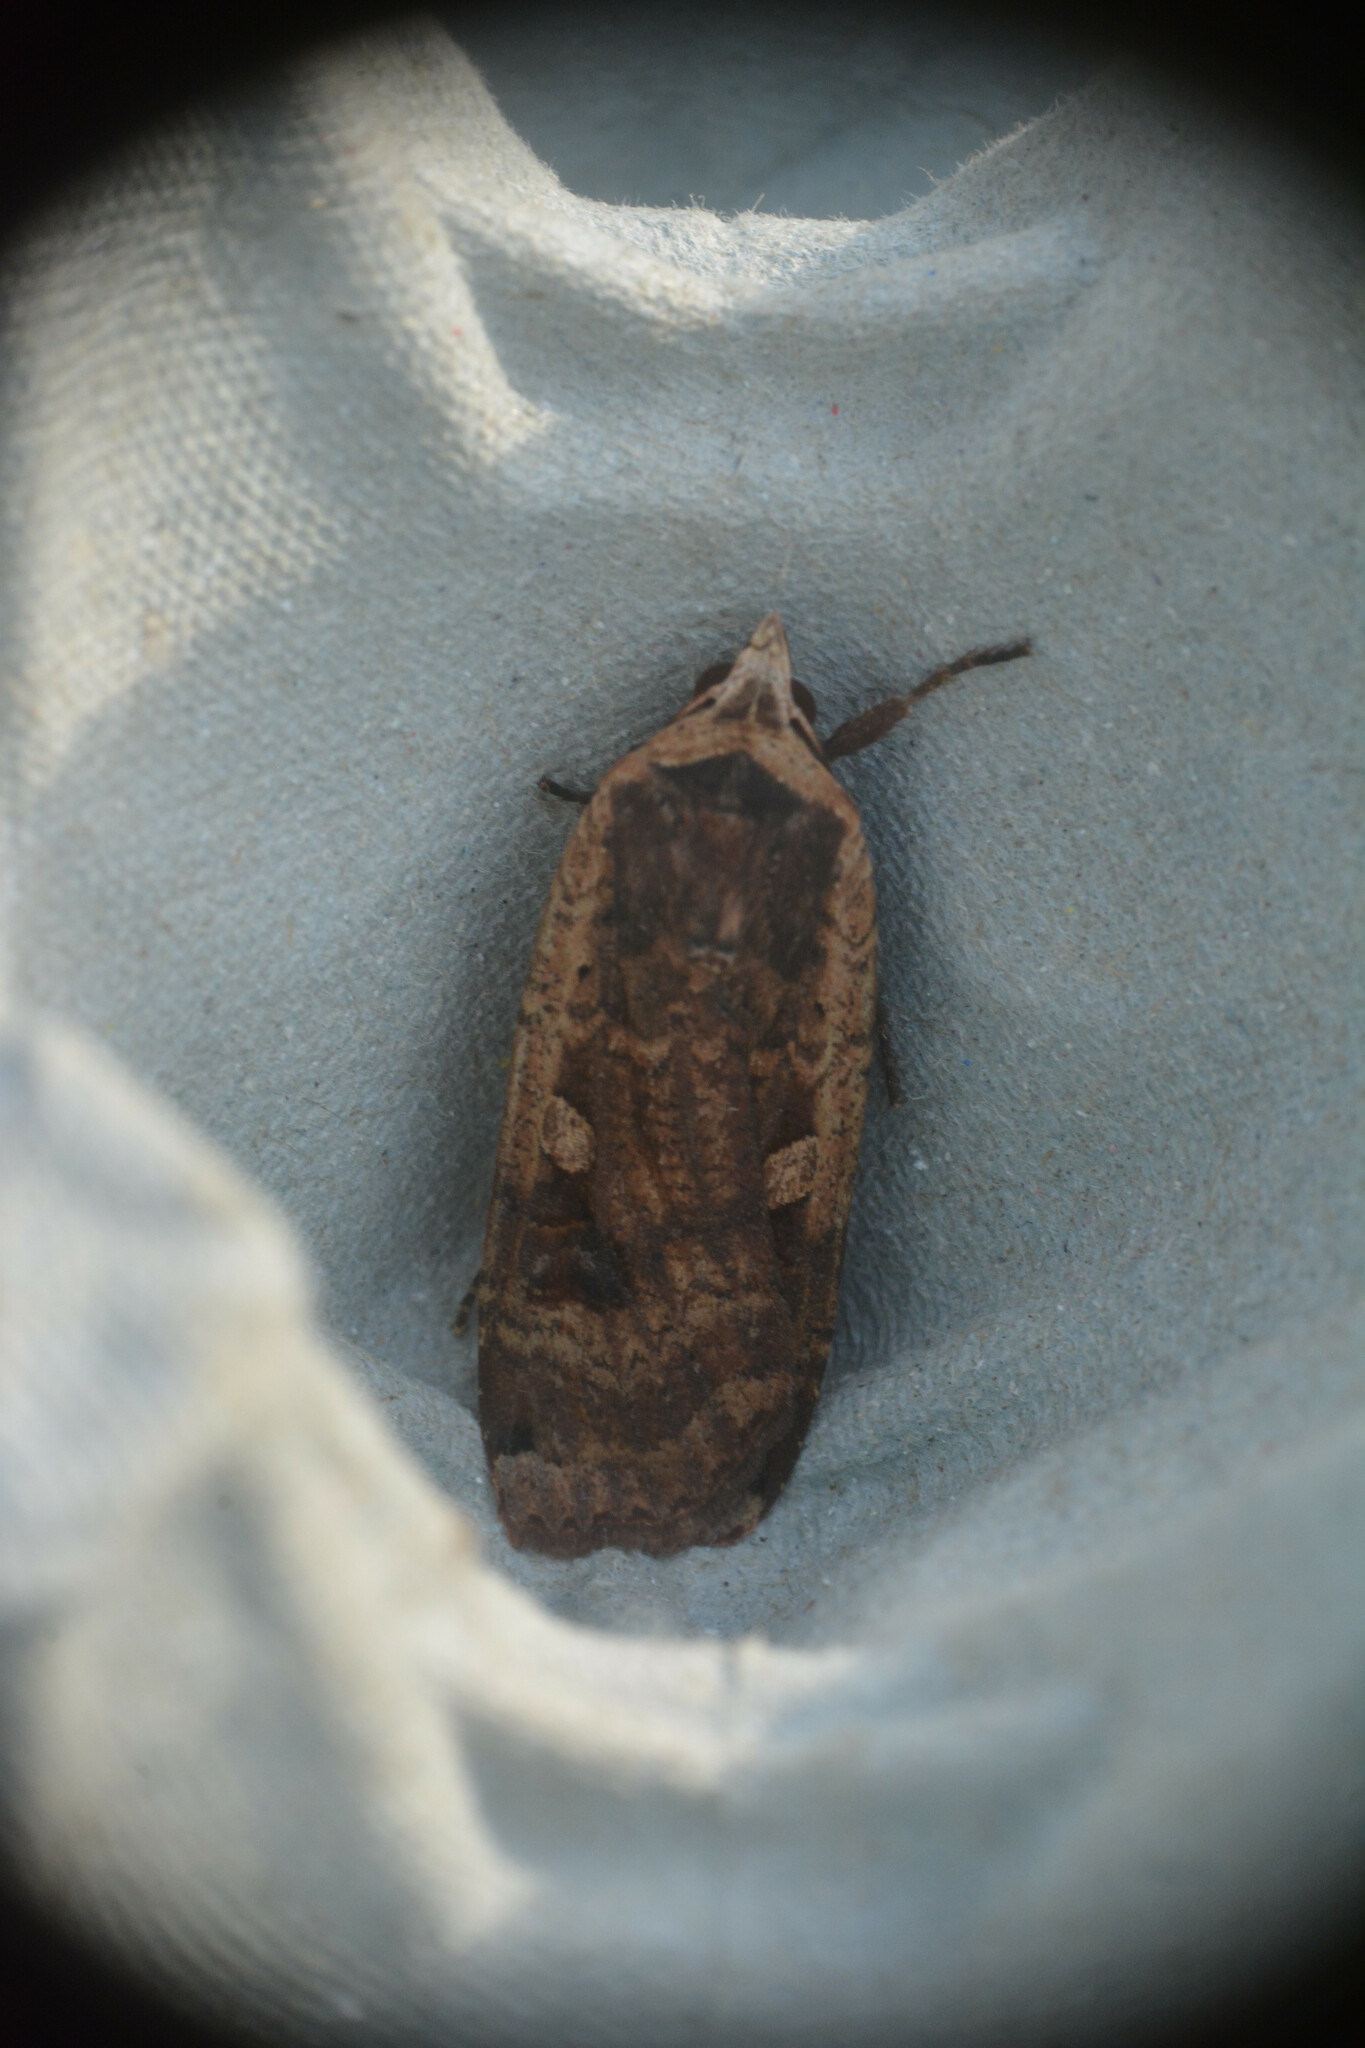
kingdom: Animalia
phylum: Arthropoda
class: Insecta
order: Lepidoptera
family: Noctuidae
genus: Noctua
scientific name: Noctua pronuba
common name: Large yellow underwing
